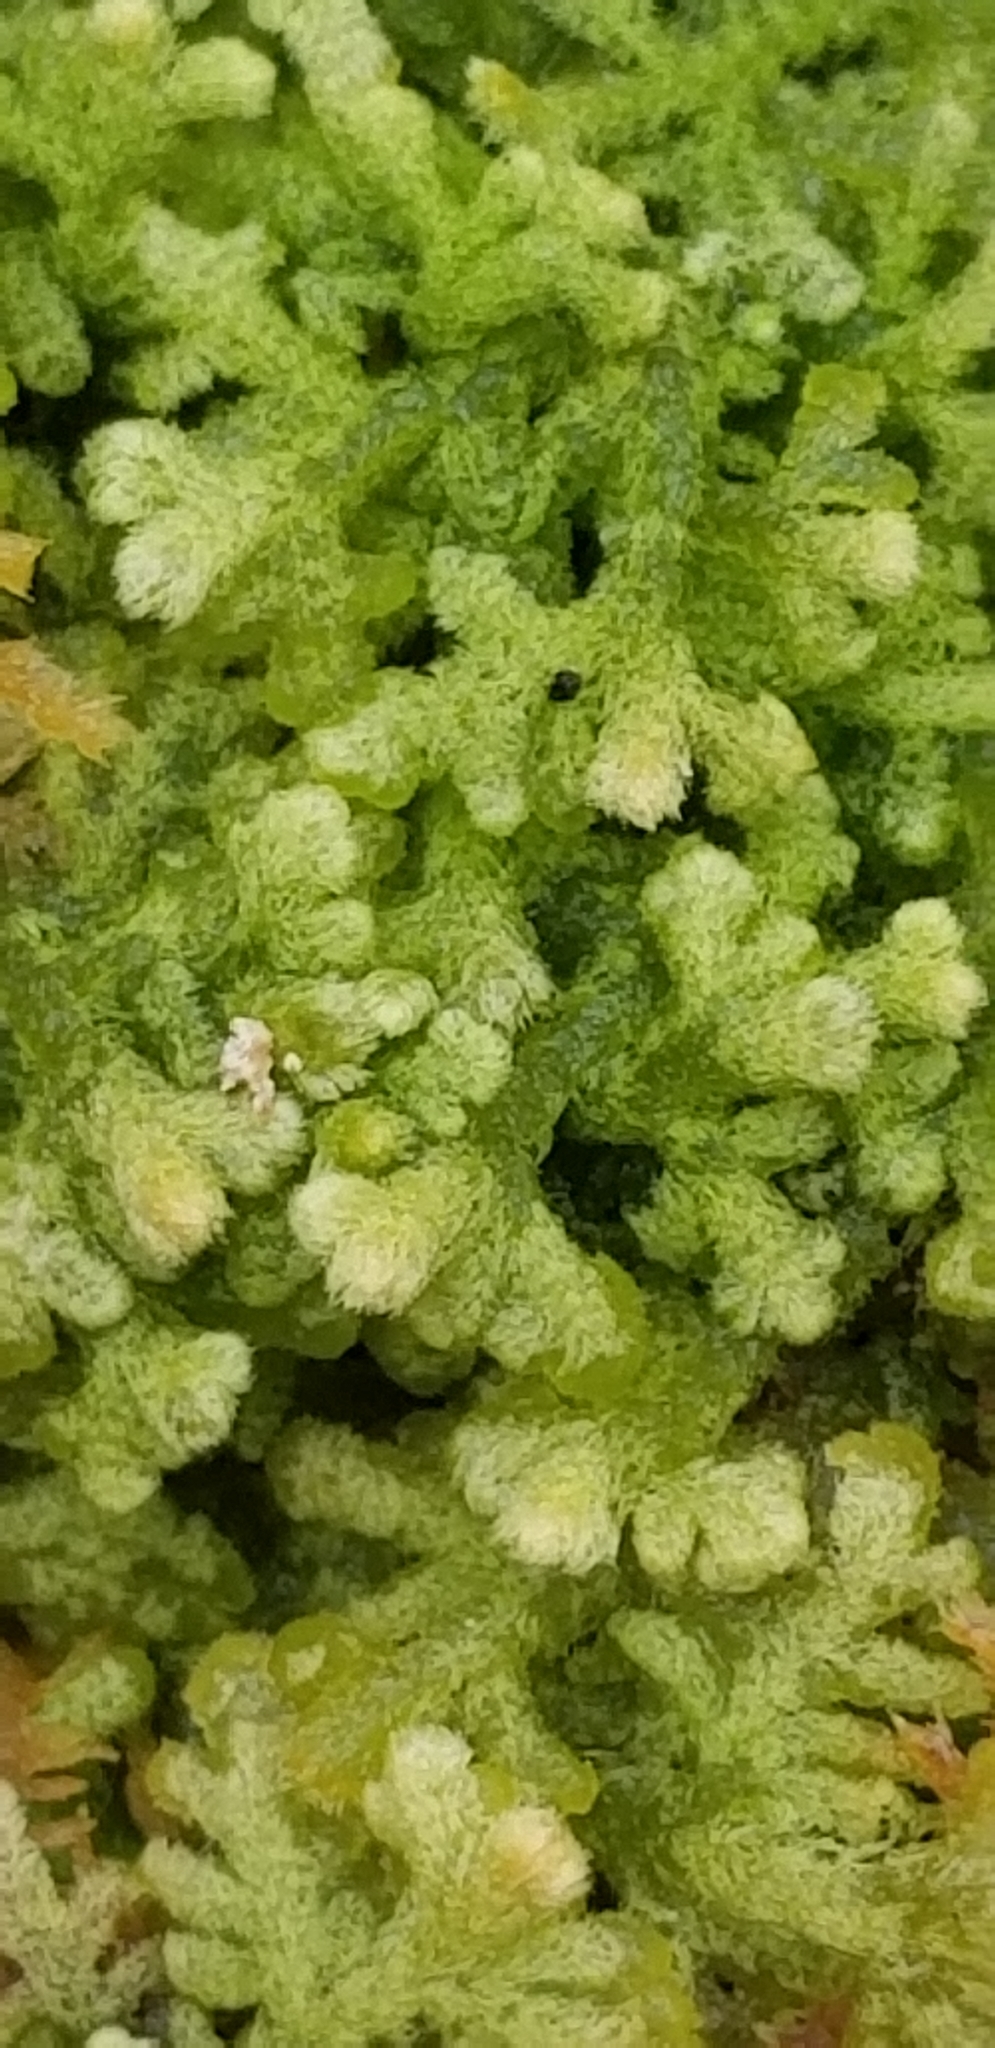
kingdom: Plantae
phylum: Marchantiophyta
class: Jungermanniopsida
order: Jungermanniales
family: Trichocoleaceae
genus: Trichocolea
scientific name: Trichocolea tomentella
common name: Woolly liverwort
